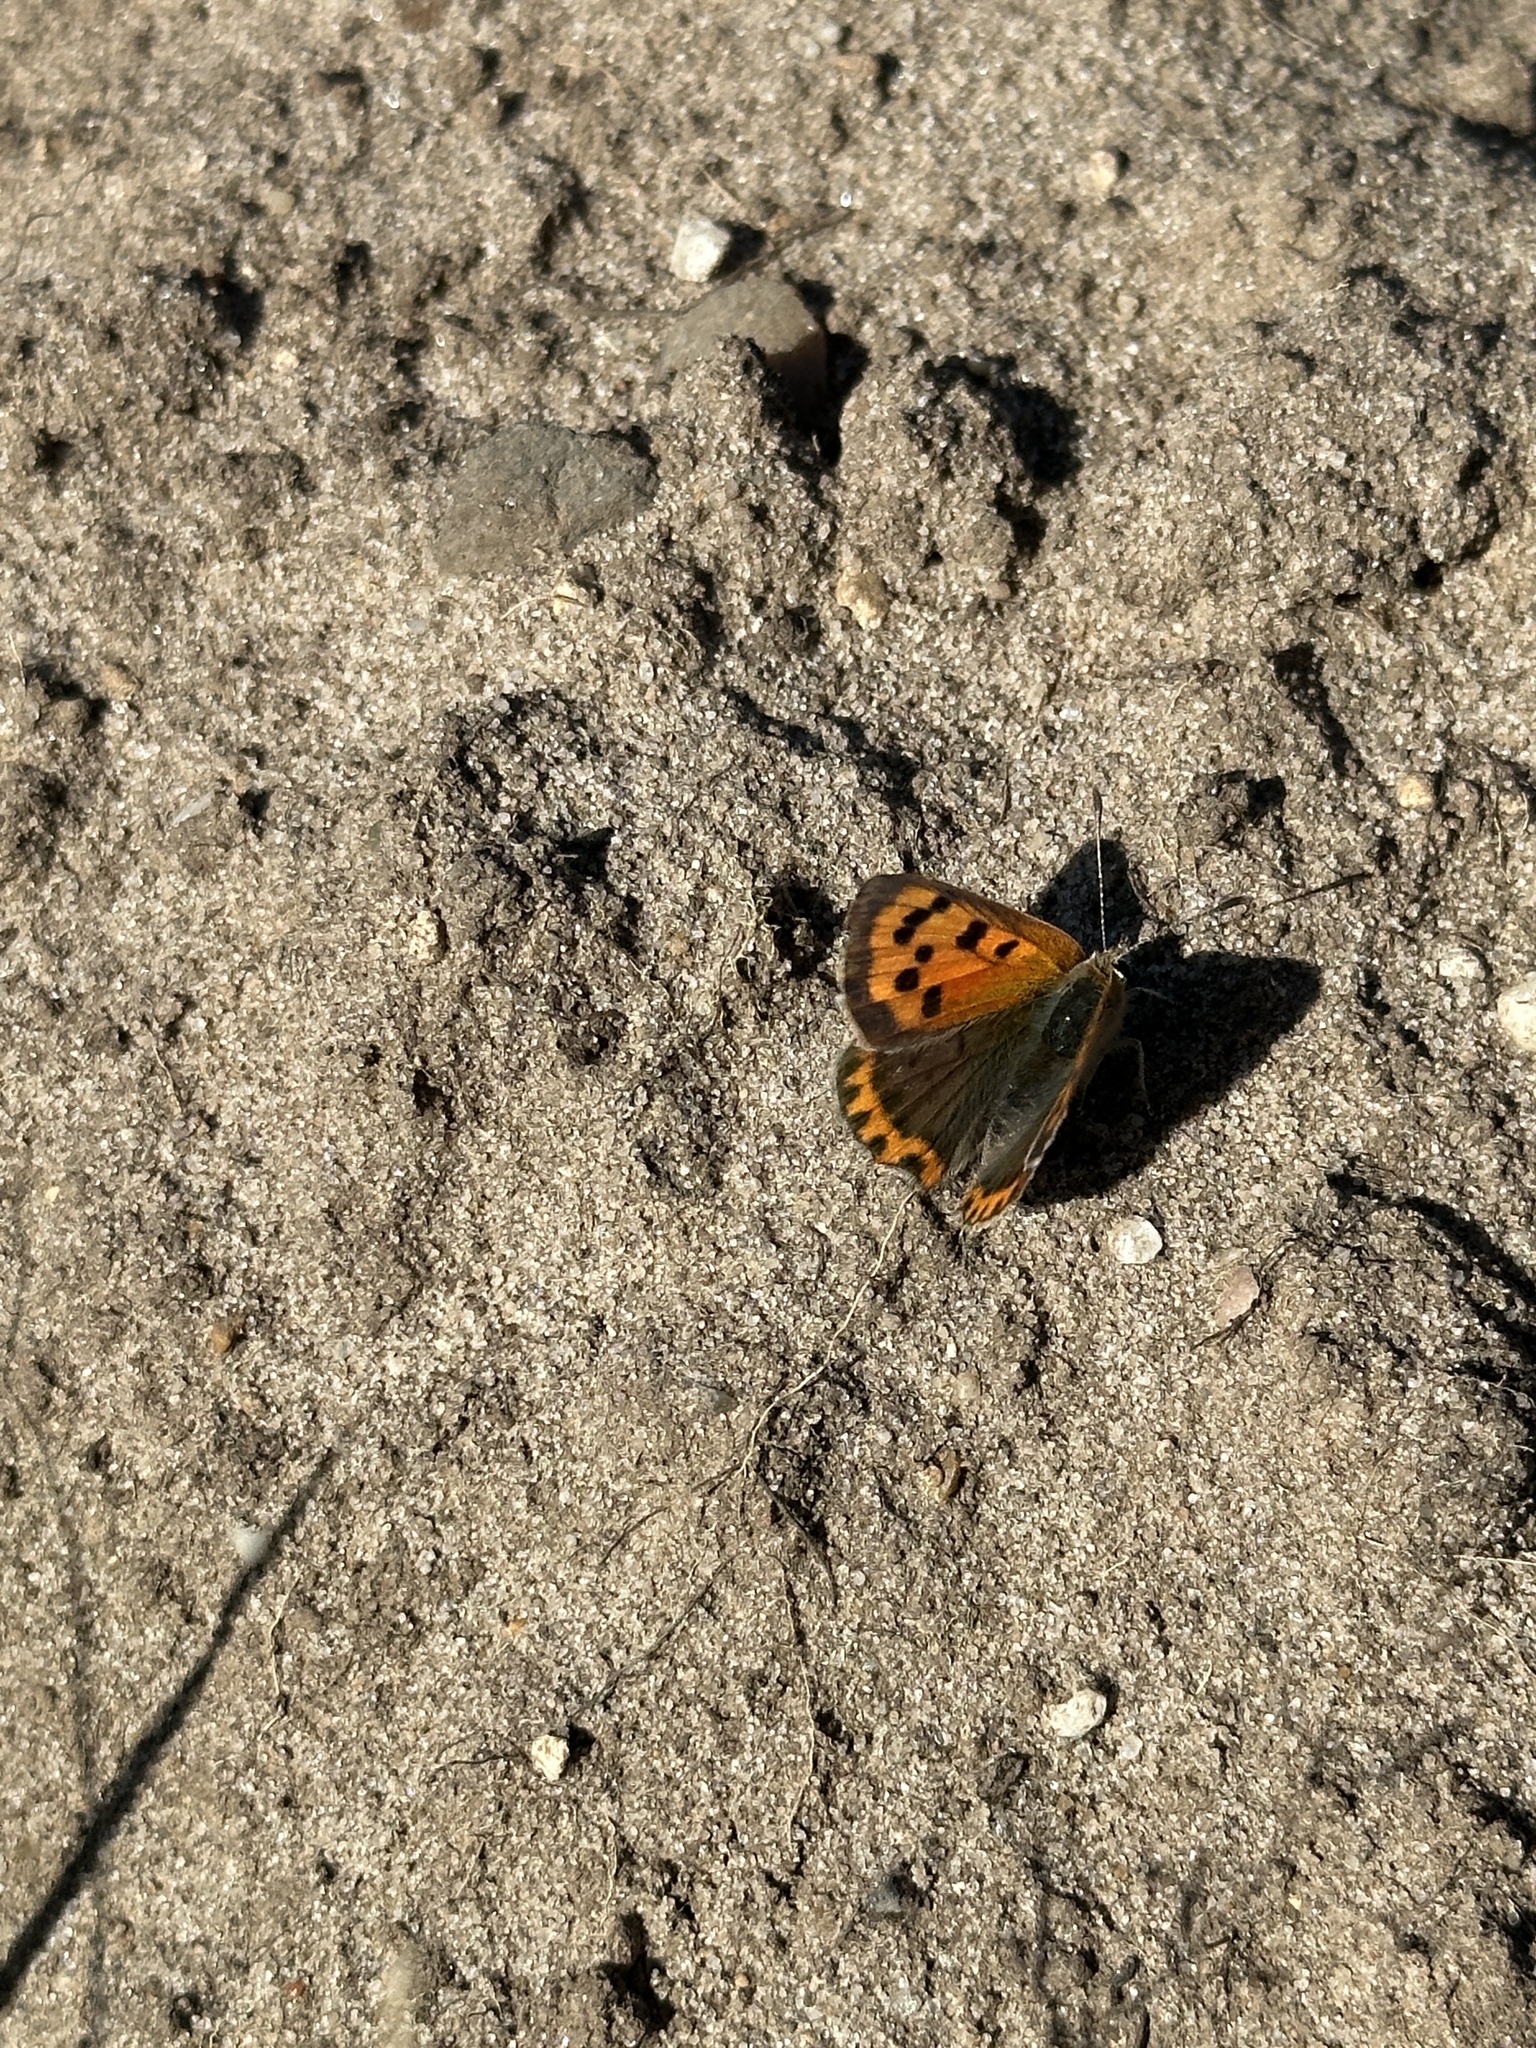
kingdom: Animalia
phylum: Arthropoda
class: Insecta
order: Lepidoptera
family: Lycaenidae
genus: Lycaena
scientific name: Lycaena phlaeas
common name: Small copper
